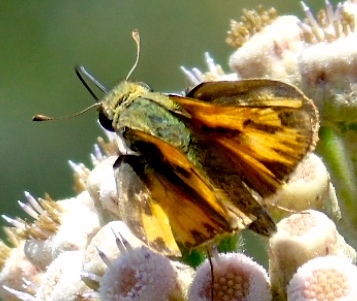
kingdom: Animalia
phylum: Arthropoda
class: Insecta
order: Lepidoptera
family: Hesperiidae
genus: Hylephila
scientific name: Hylephila phyleus
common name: Fiery skipper
